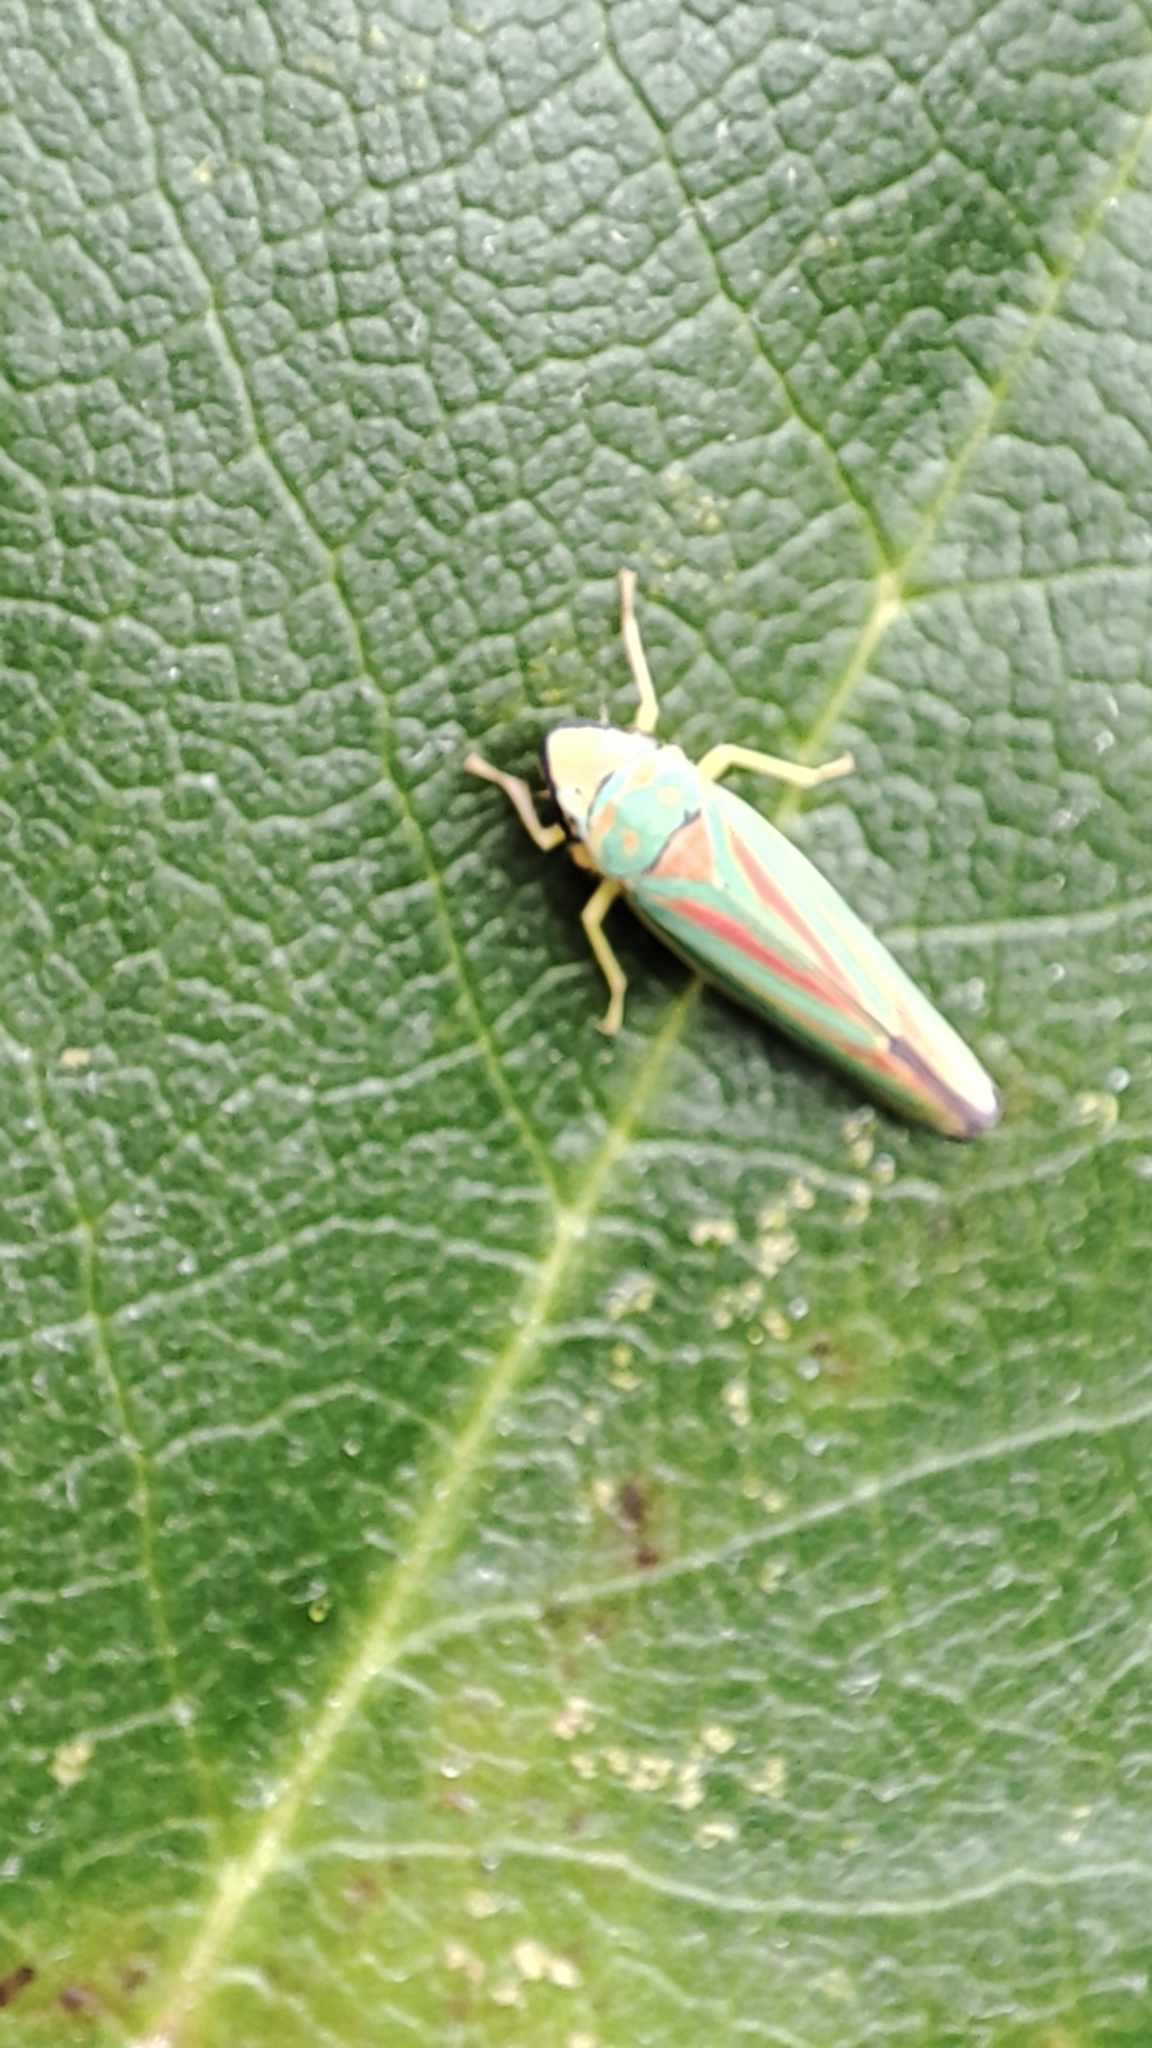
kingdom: Animalia
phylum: Arthropoda
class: Insecta
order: Hemiptera
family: Cicadellidae
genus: Graphocephala
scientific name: Graphocephala fennahi
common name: Rhododendron leafhopper
